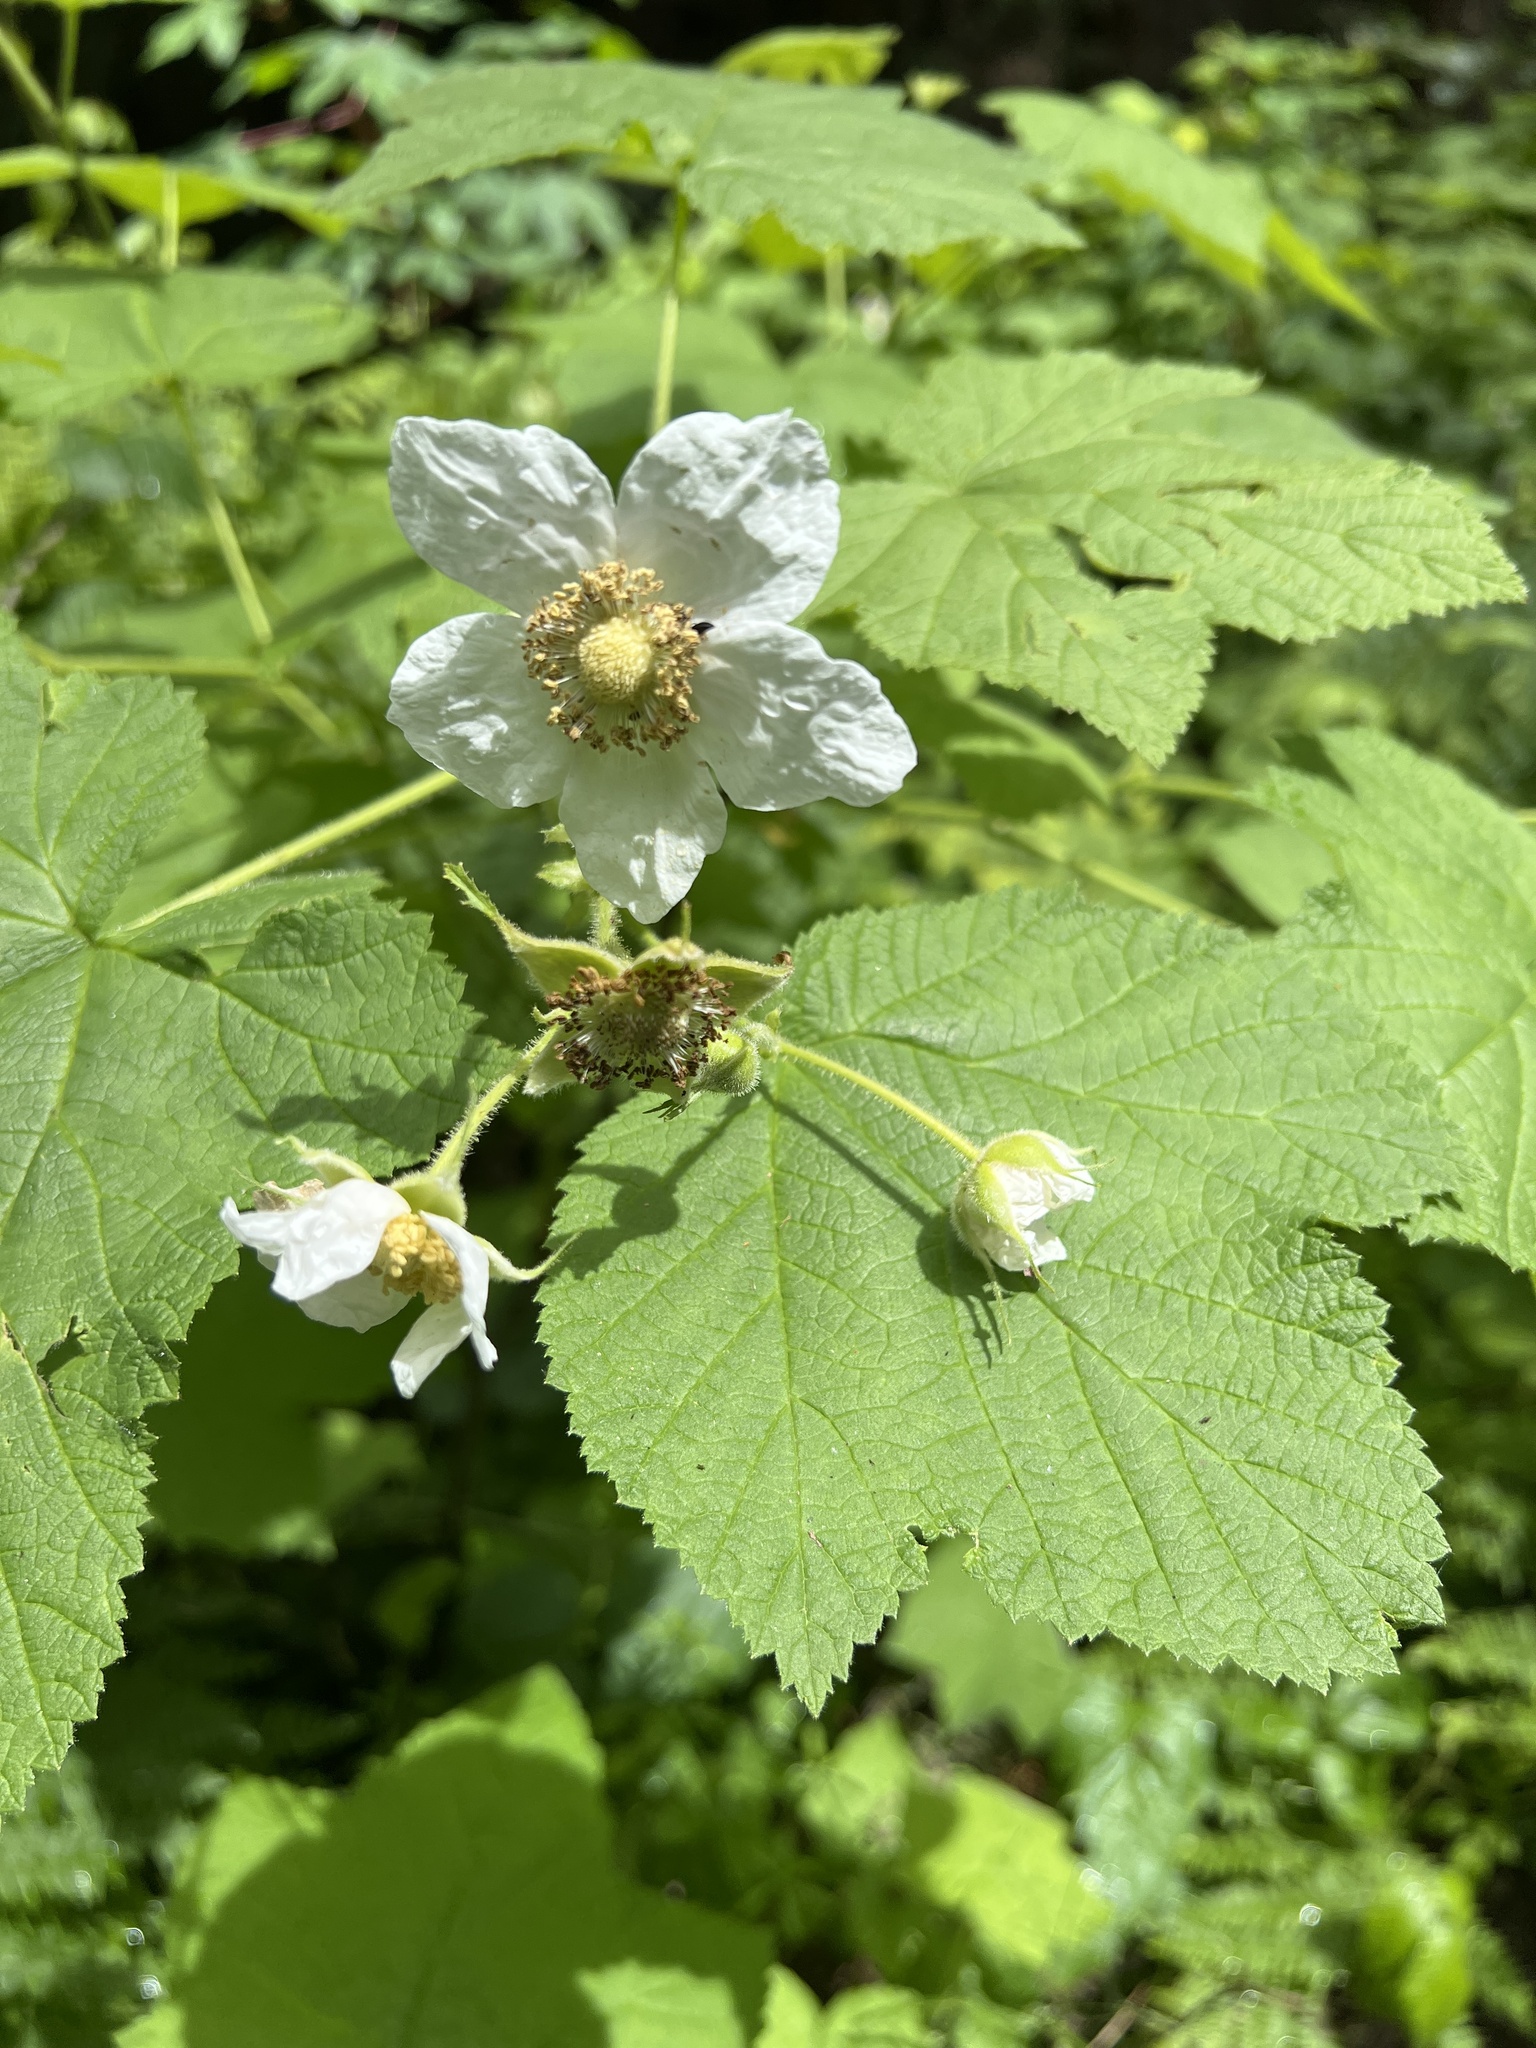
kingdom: Plantae
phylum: Tracheophyta
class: Magnoliopsida
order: Rosales
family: Rosaceae
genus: Rubus
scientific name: Rubus parviflorus
